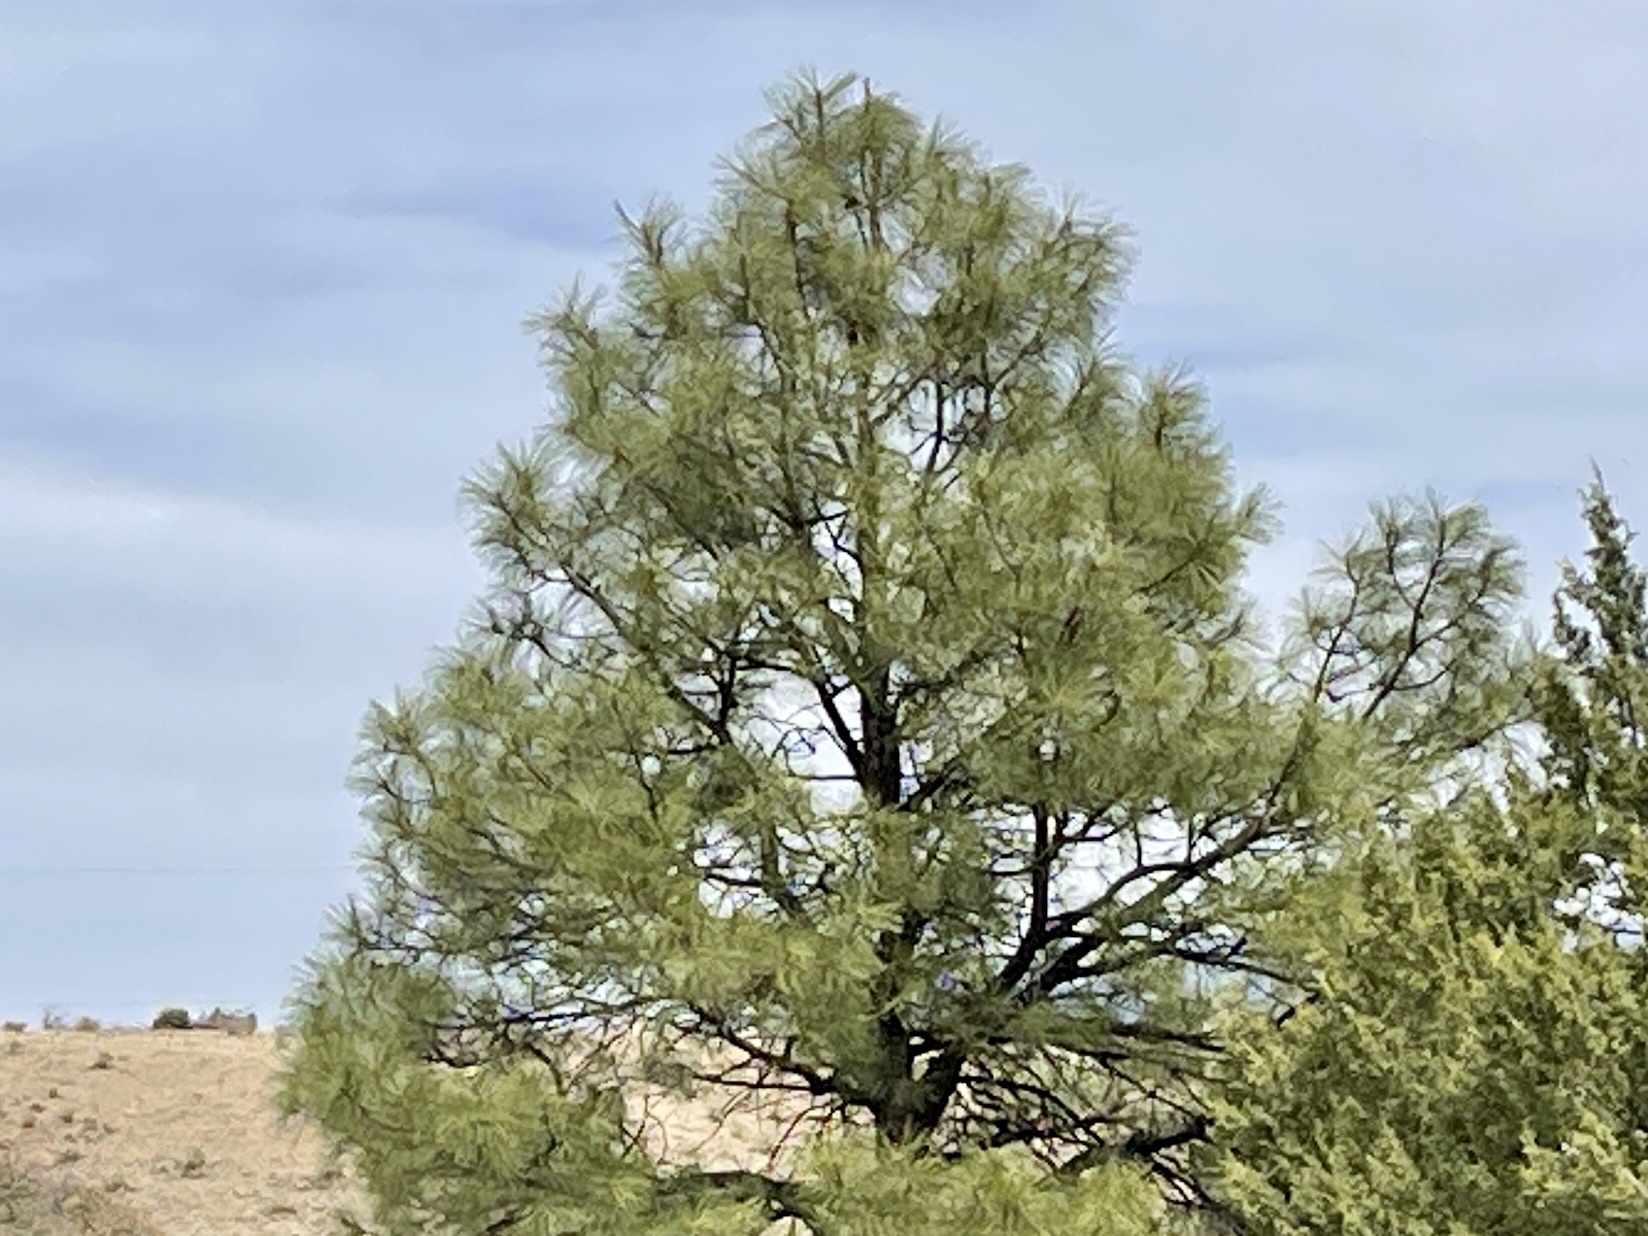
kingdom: Plantae
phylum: Tracheophyta
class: Pinopsida
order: Pinales
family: Pinaceae
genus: Pinus
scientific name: Pinus ponderosa
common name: Western yellow-pine
